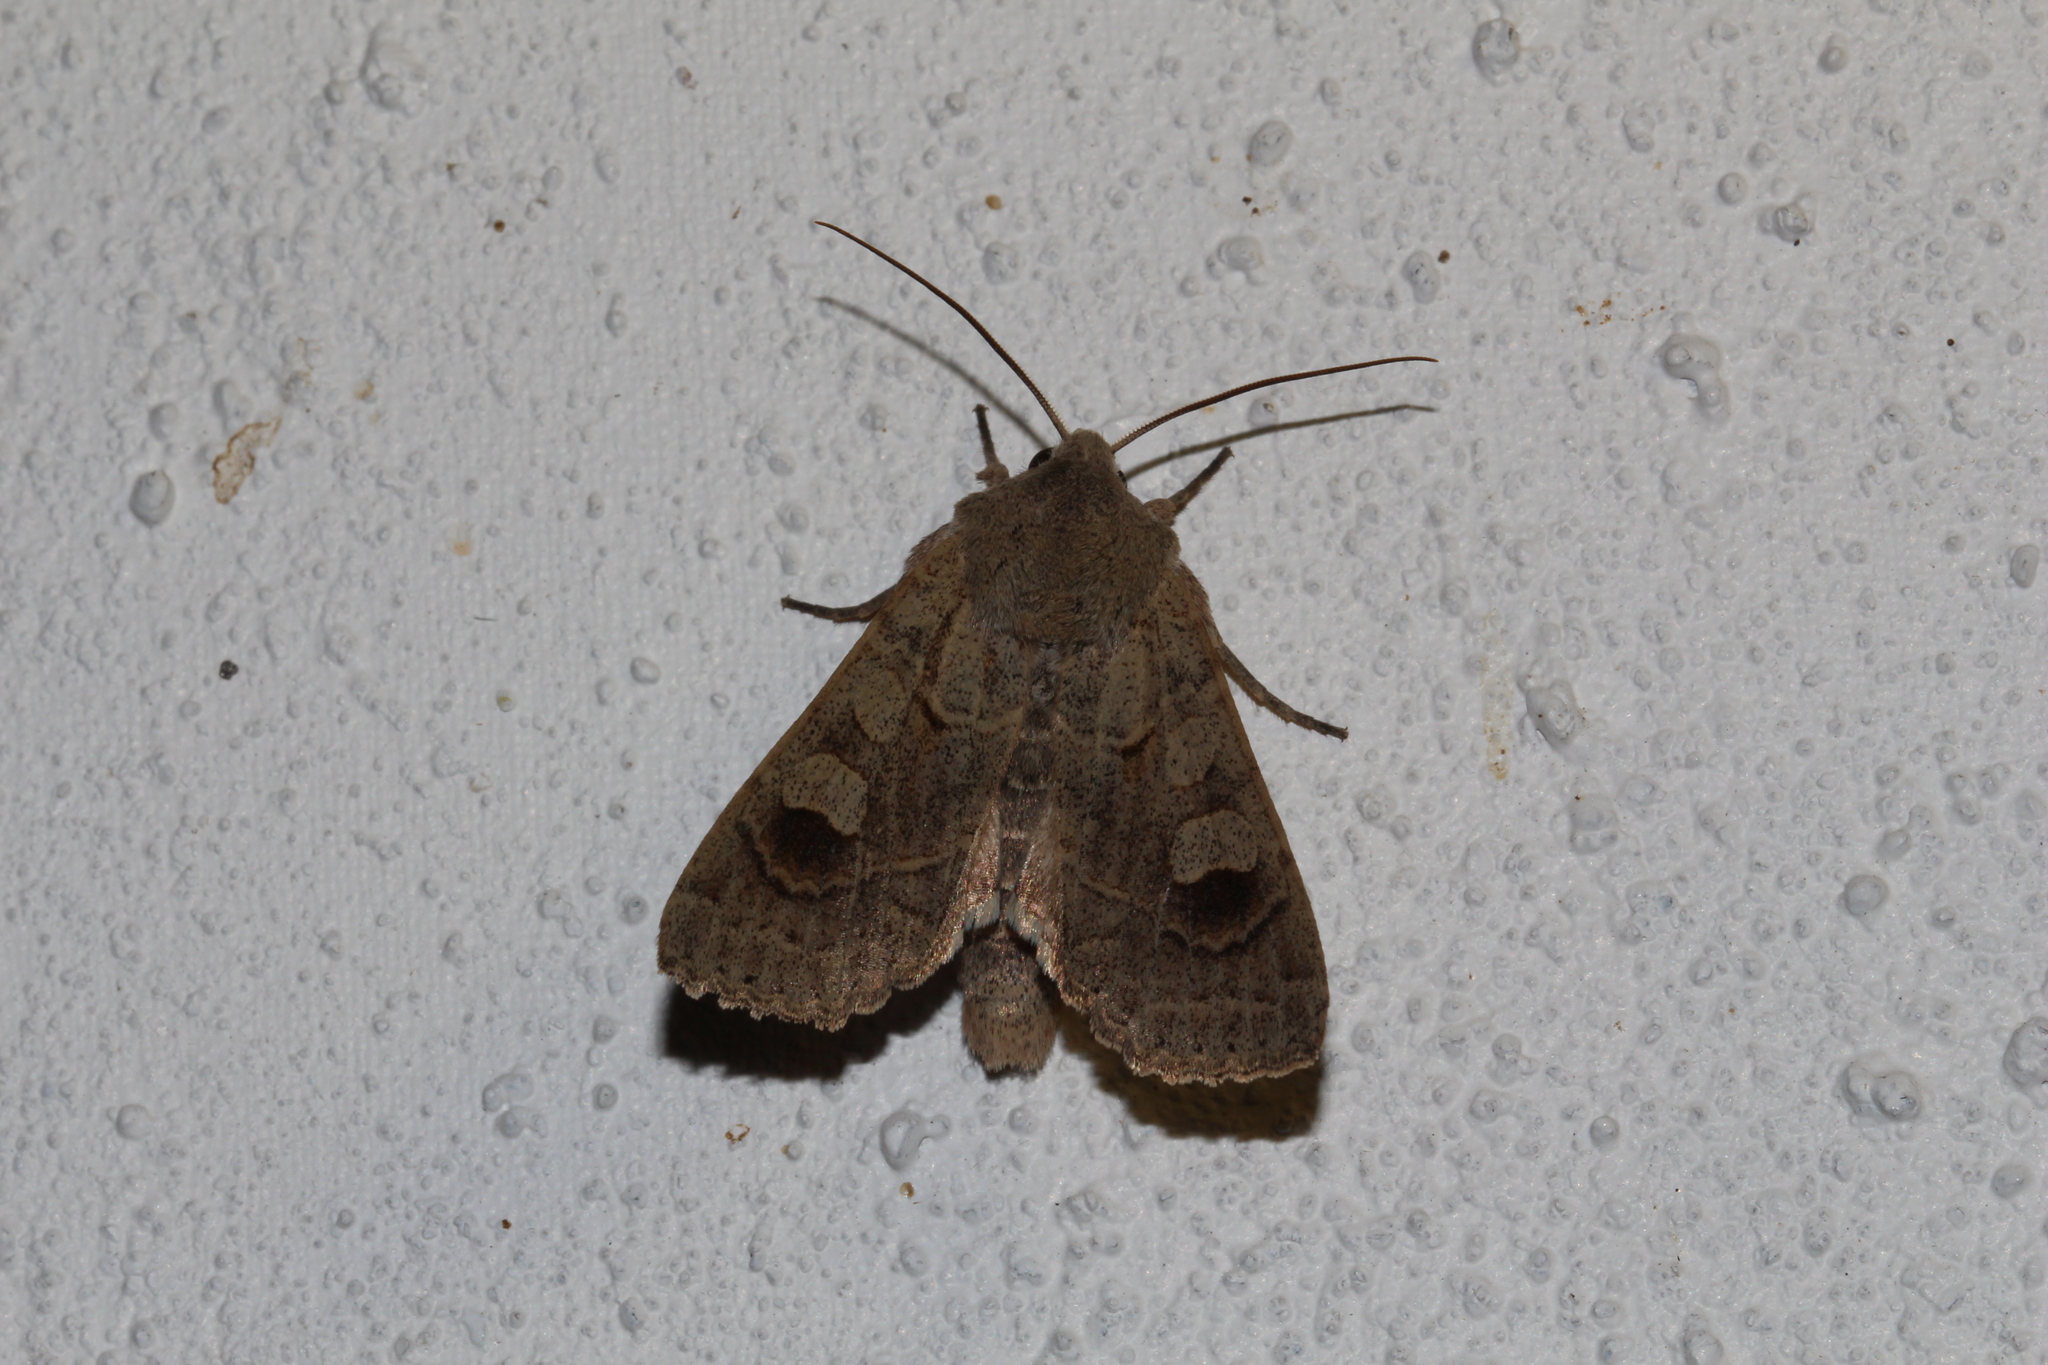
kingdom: Animalia
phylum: Arthropoda
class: Insecta
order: Lepidoptera
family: Noctuidae
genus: Ammoconia
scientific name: Ammoconia caecimacula
